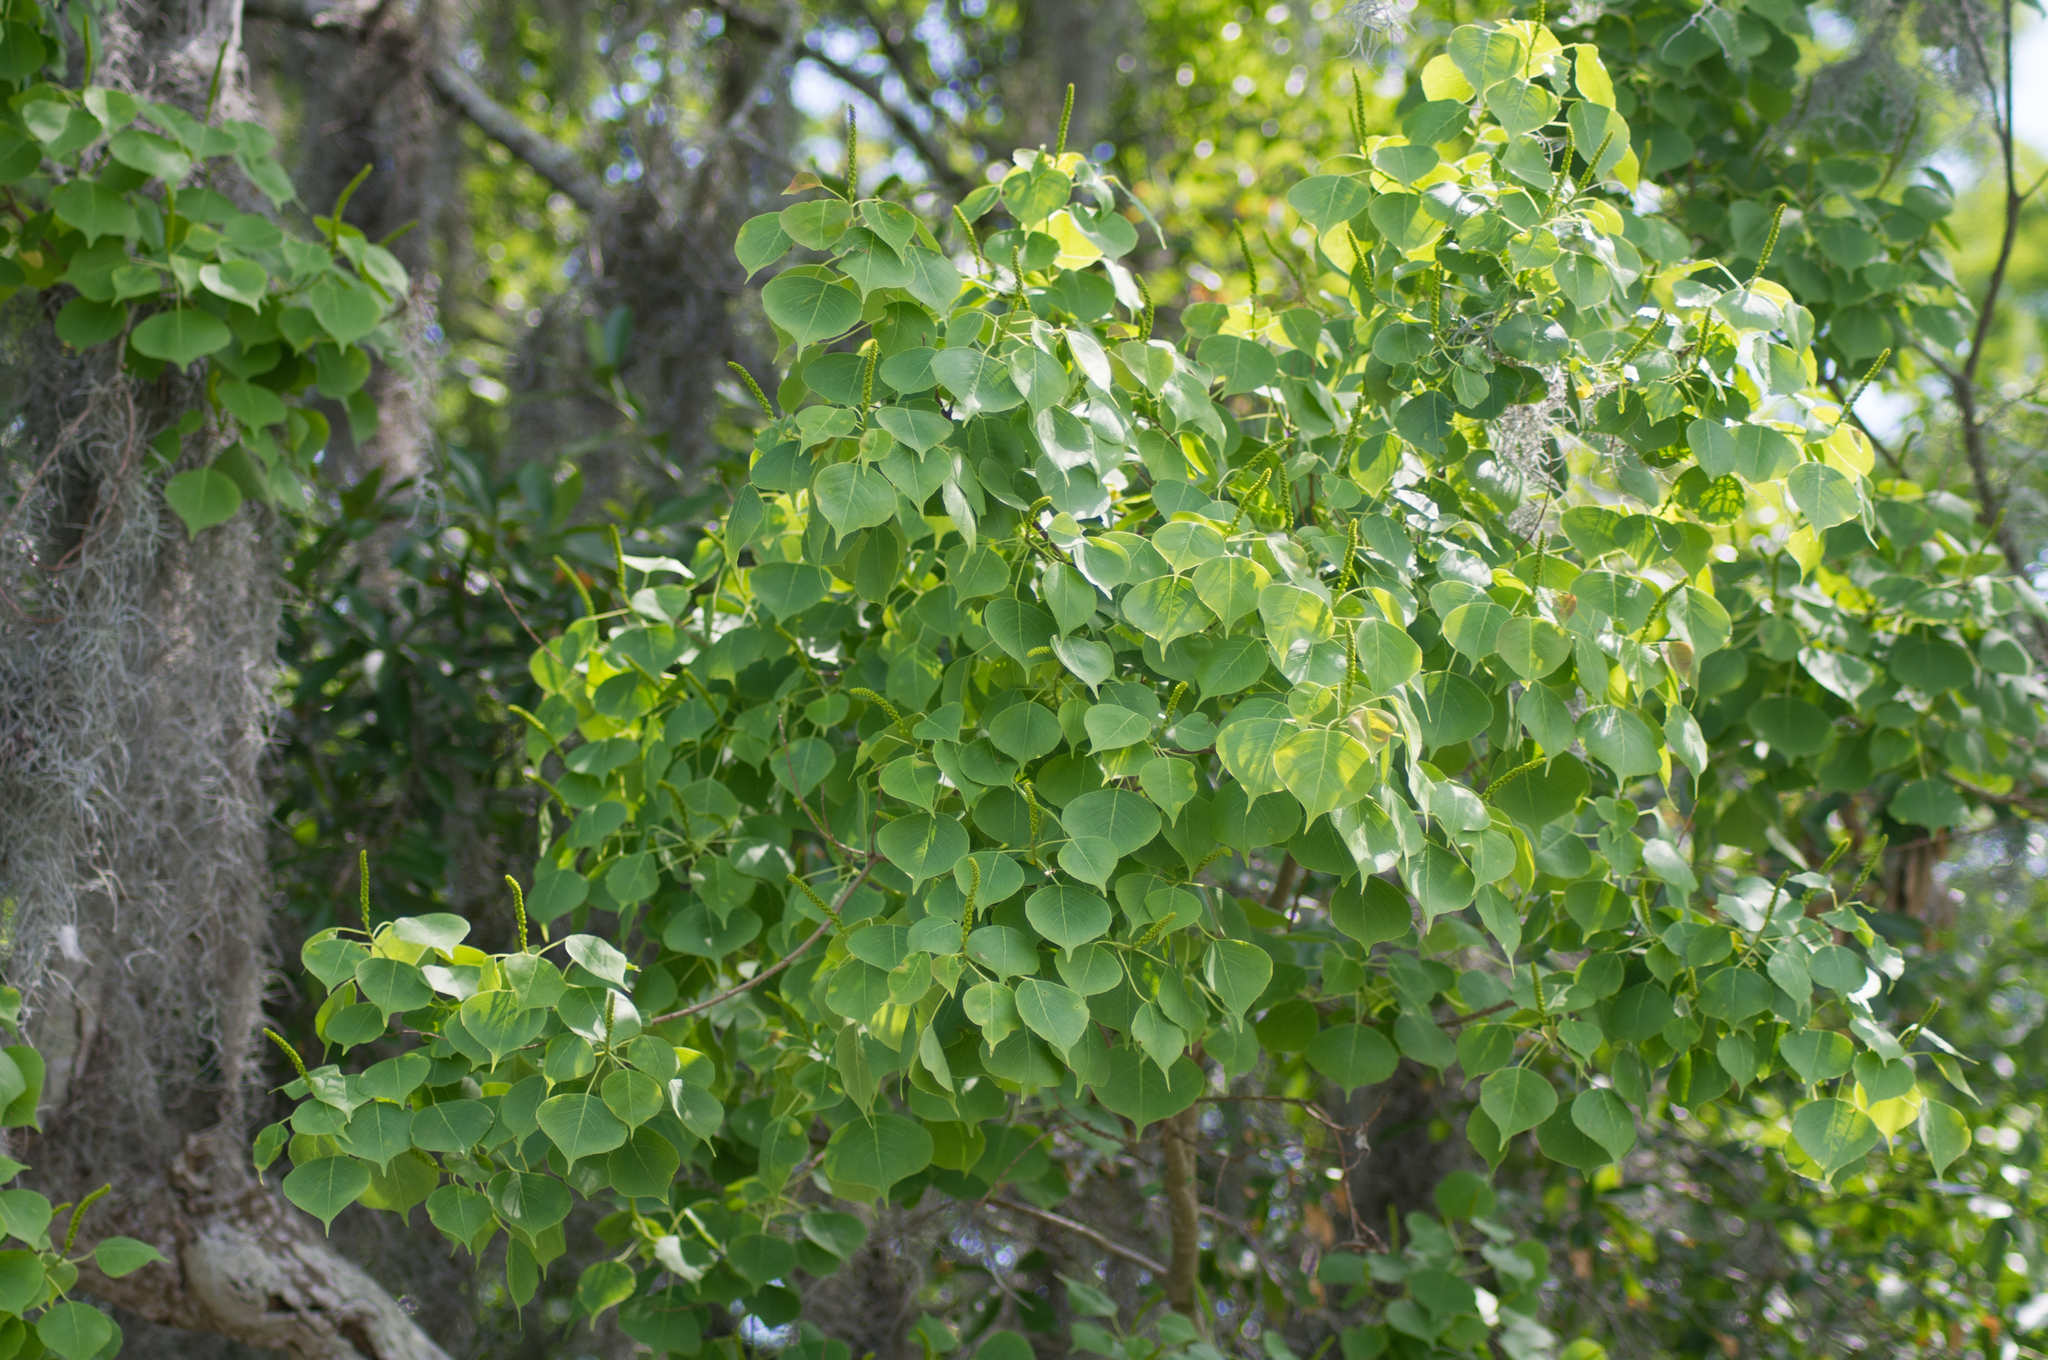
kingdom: Plantae
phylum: Tracheophyta
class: Magnoliopsida
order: Malpighiales
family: Euphorbiaceae
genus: Triadica
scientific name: Triadica sebifera
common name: Chinese tallow
